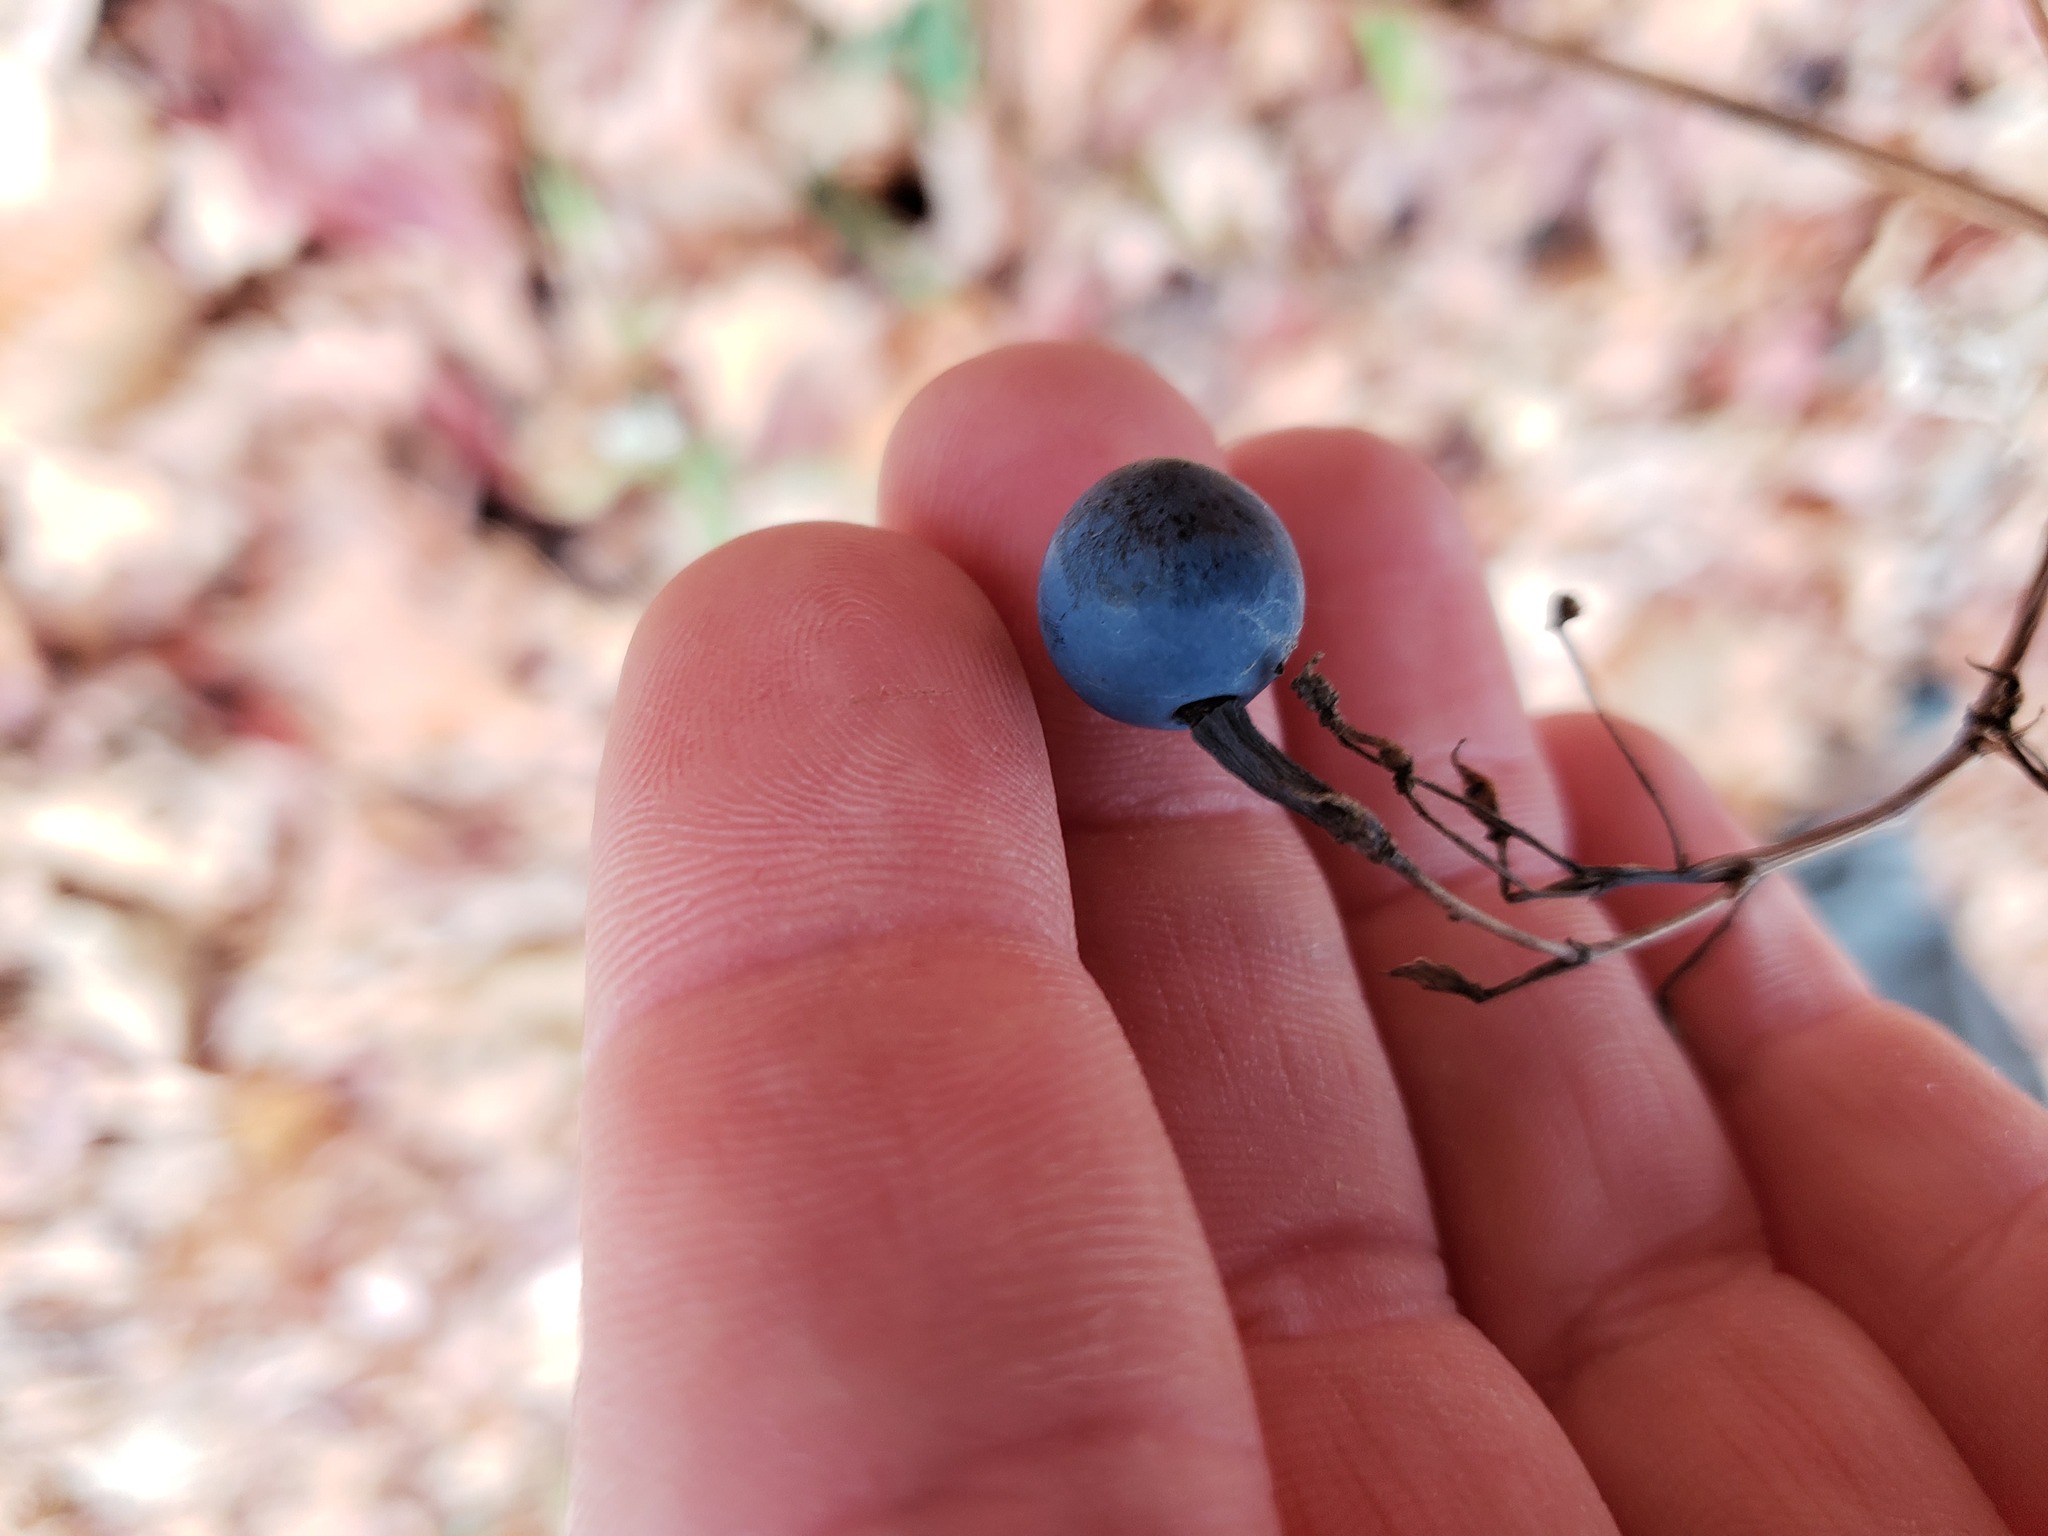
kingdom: Plantae
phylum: Tracheophyta
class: Magnoliopsida
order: Ranunculales
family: Berberidaceae
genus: Caulophyllum
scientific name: Caulophyllum thalictroides
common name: Blue cohosh
